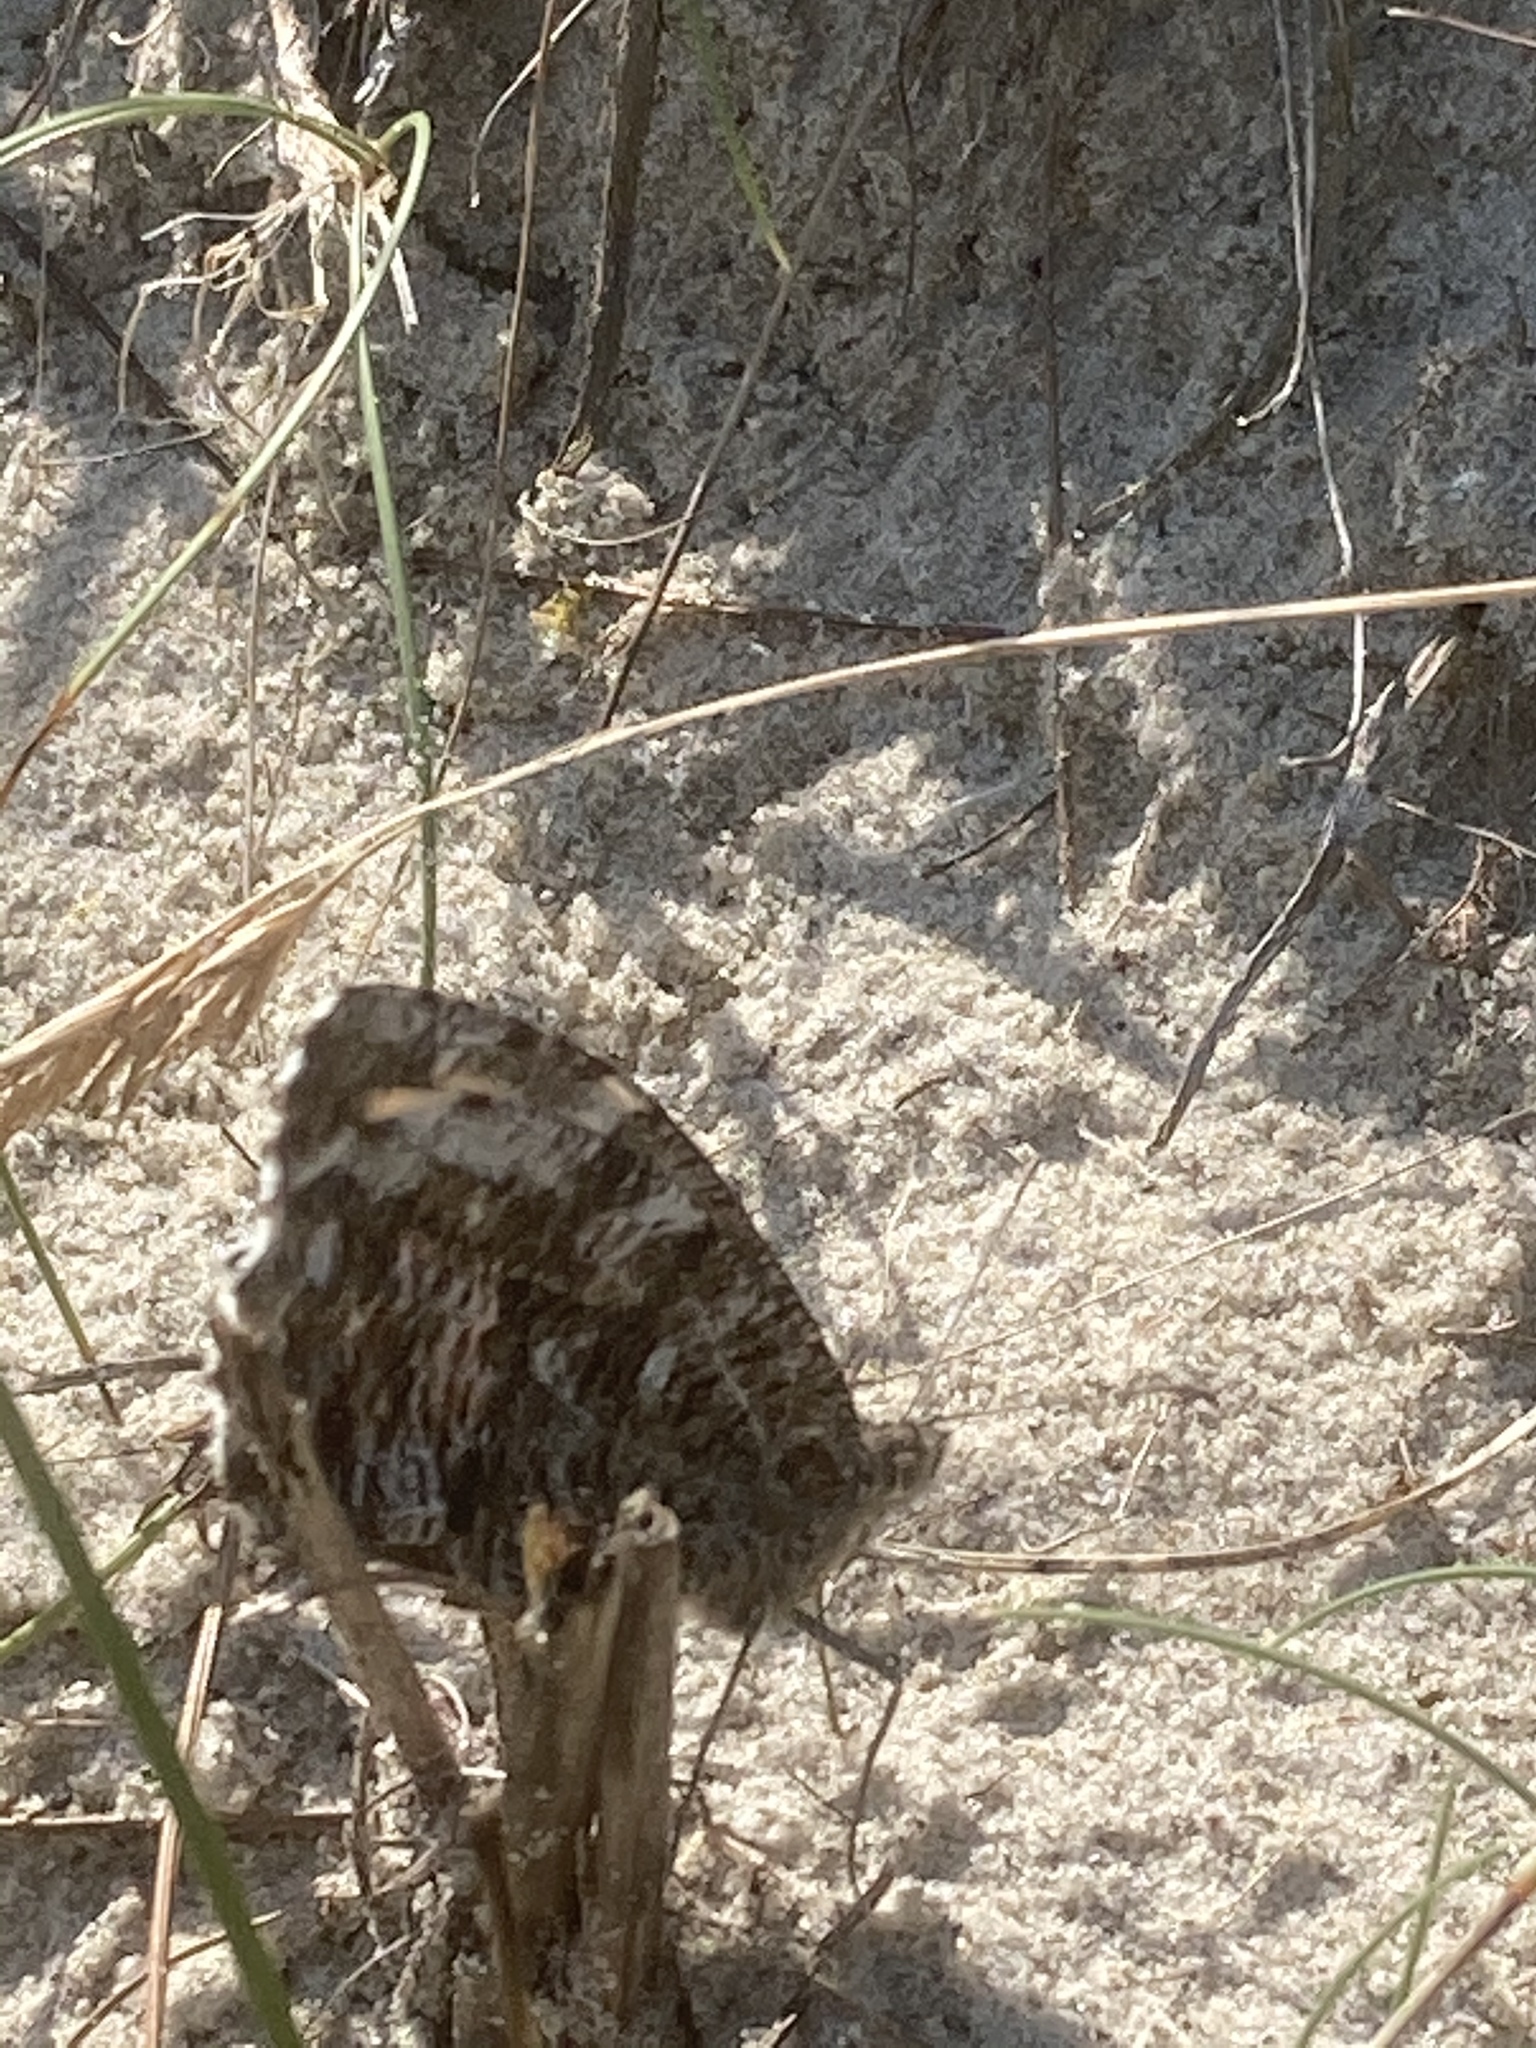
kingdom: Animalia
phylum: Arthropoda
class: Insecta
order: Lepidoptera
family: Nymphalidae
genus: Hipparchia
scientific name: Hipparchia semele
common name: Grayling
